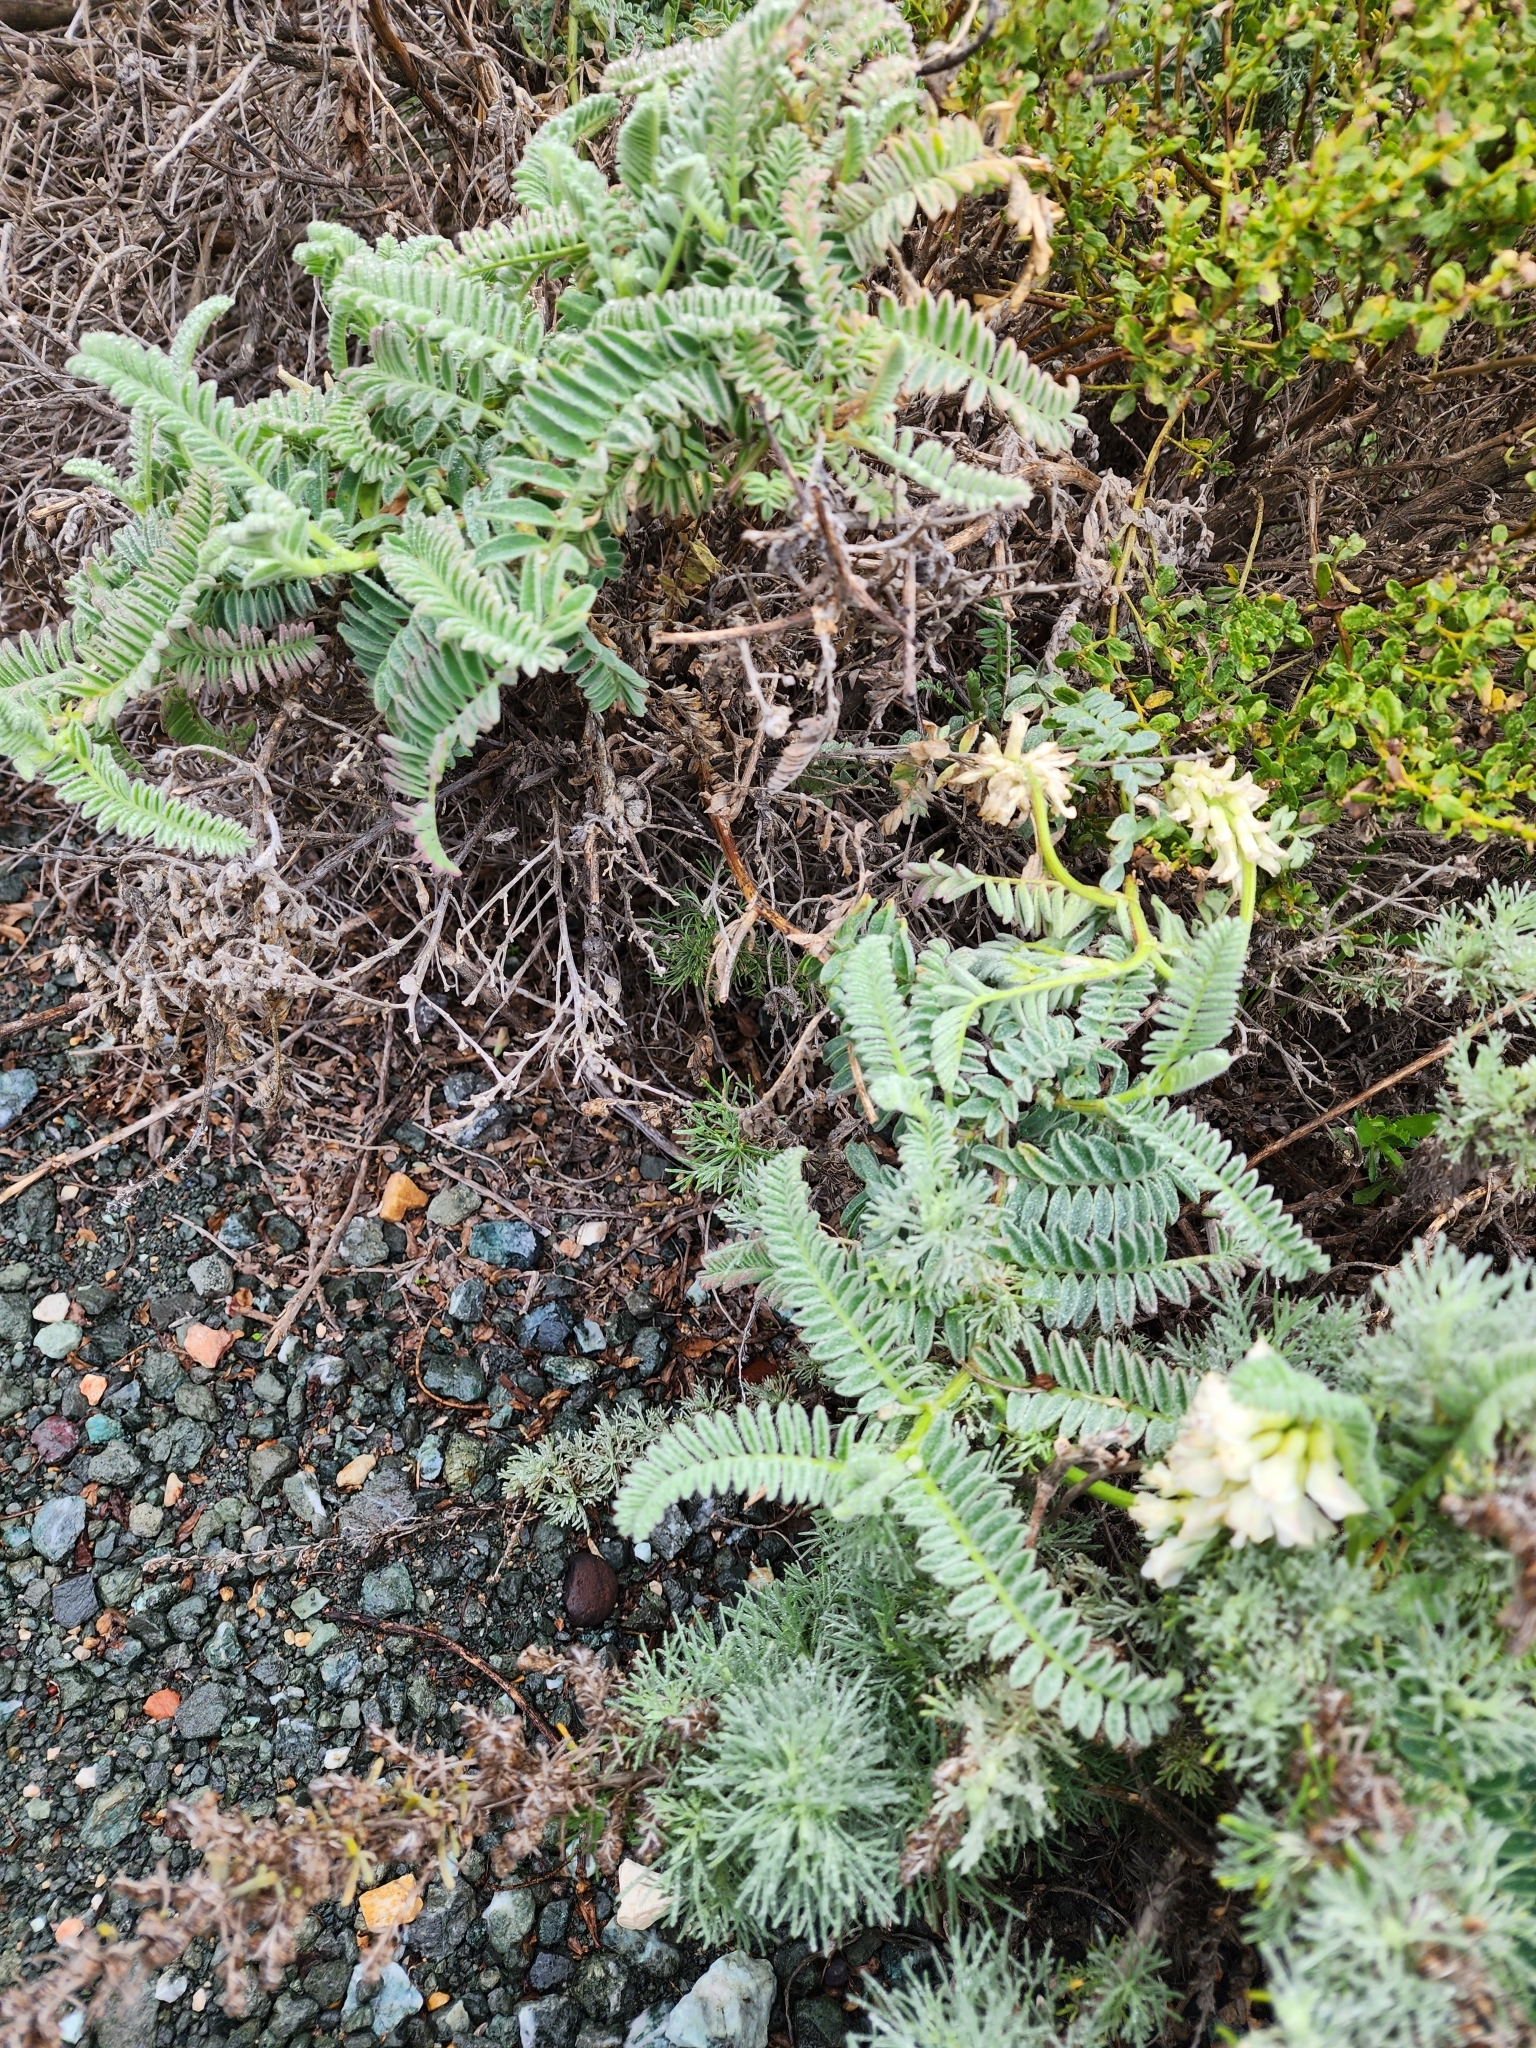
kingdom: Plantae
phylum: Tracheophyta
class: Magnoliopsida
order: Fabales
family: Fabaceae
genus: Astragalus
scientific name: Astragalus nuttallii
